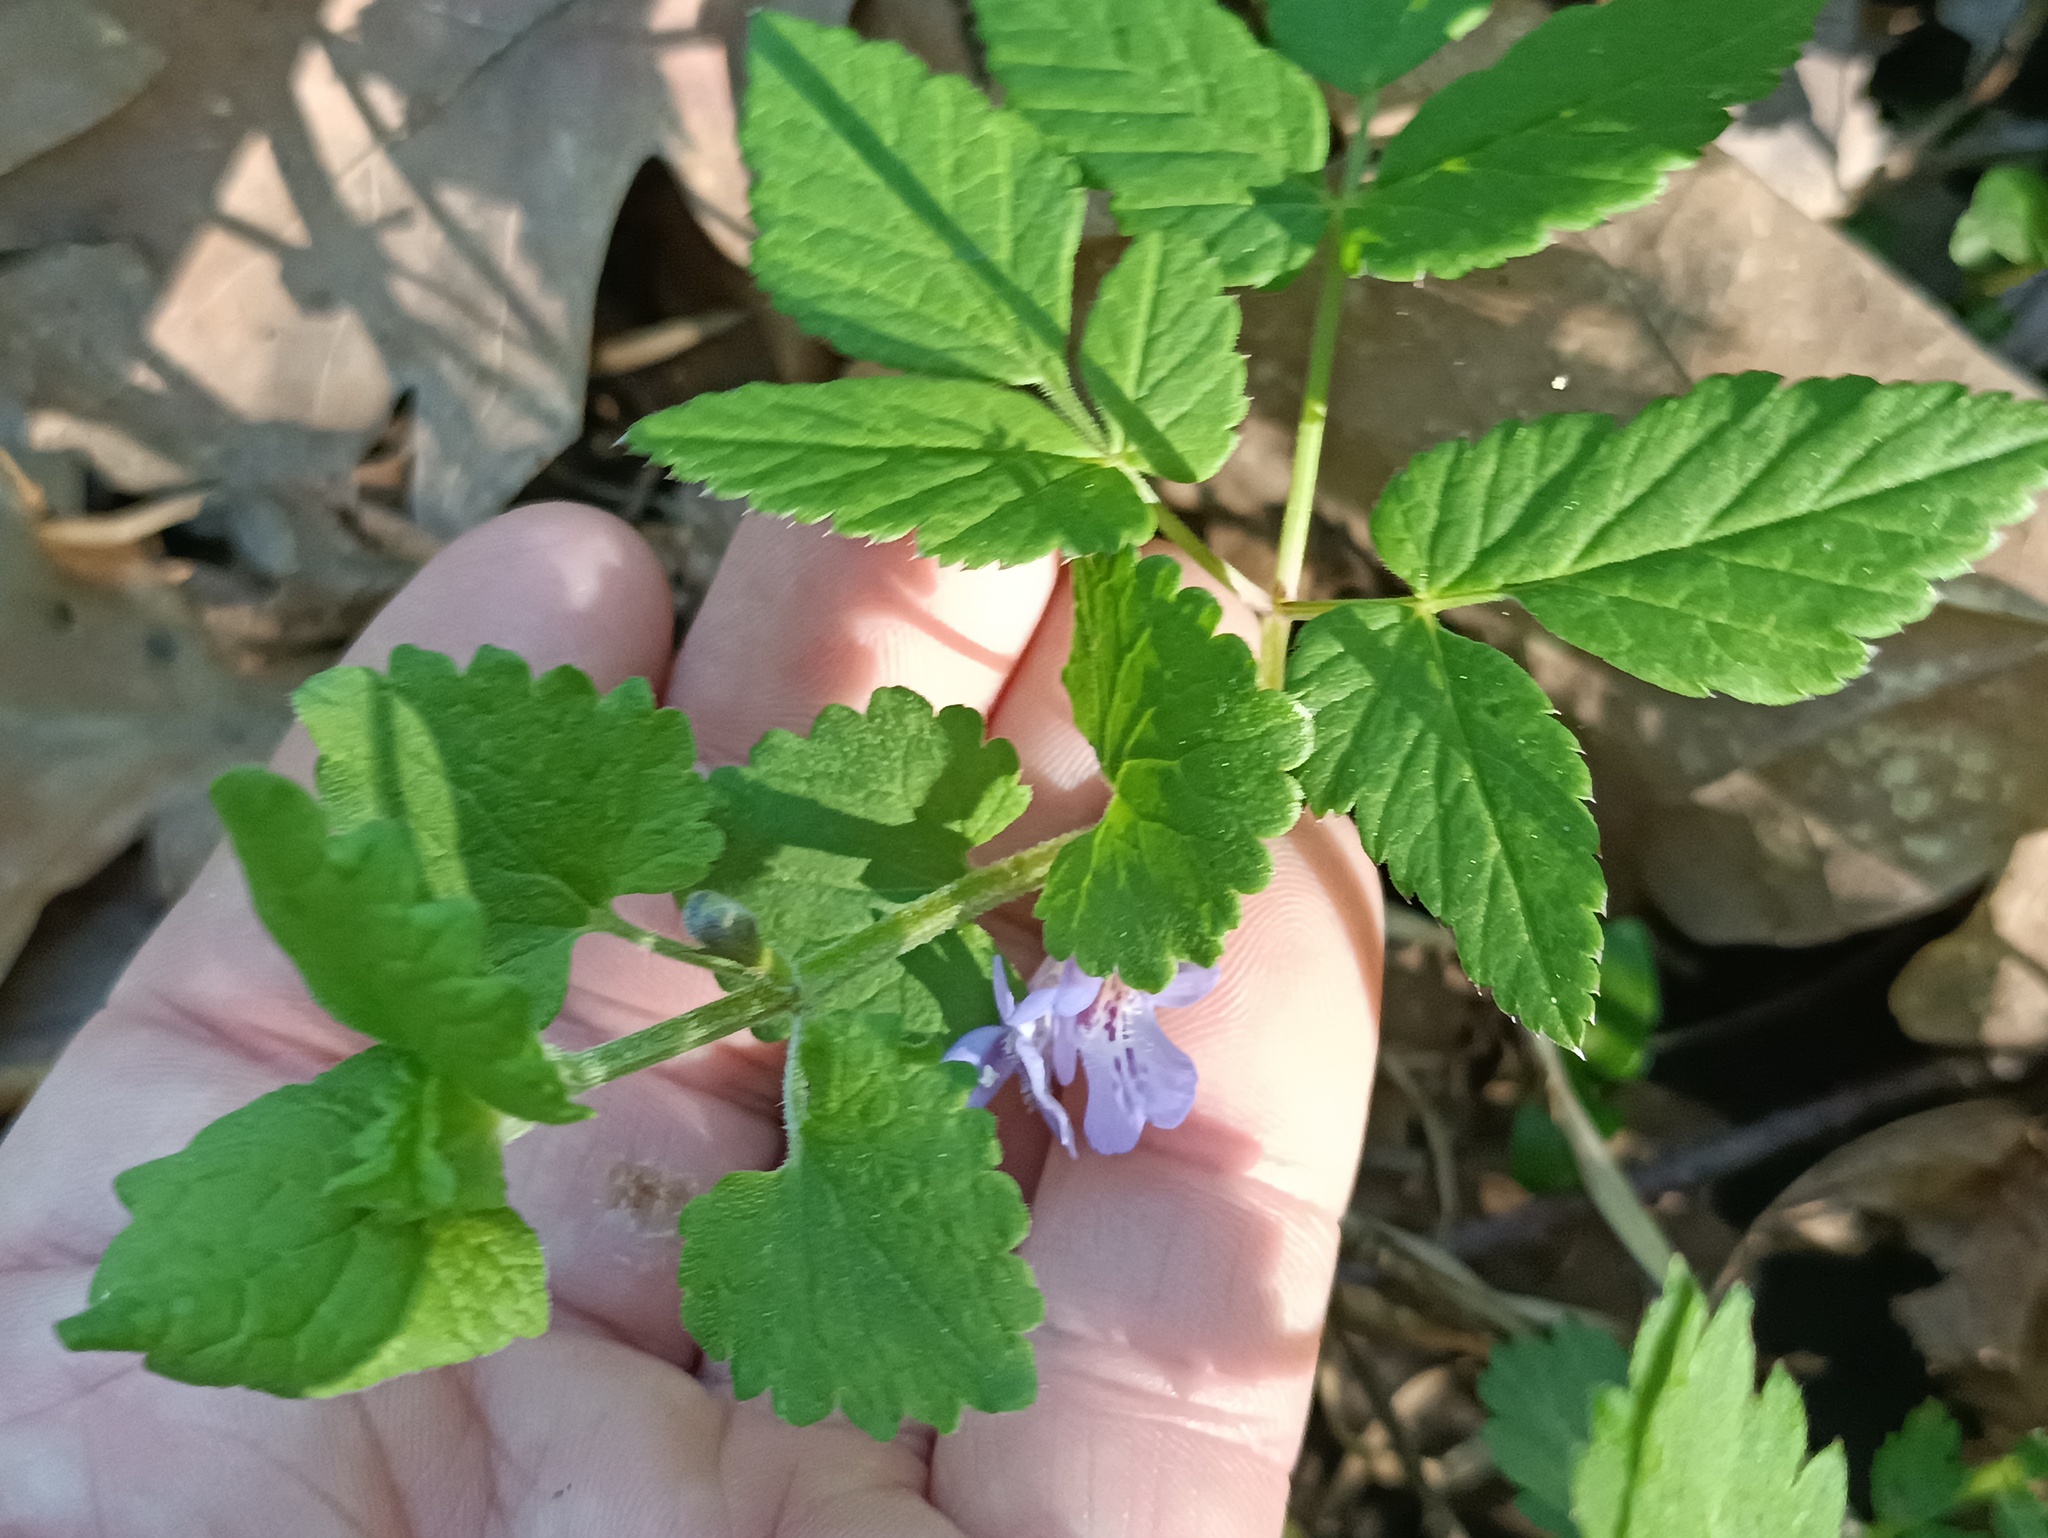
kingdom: Plantae
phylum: Tracheophyta
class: Magnoliopsida
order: Lamiales
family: Lamiaceae
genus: Glechoma
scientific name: Glechoma hederacea
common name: Ground ivy
